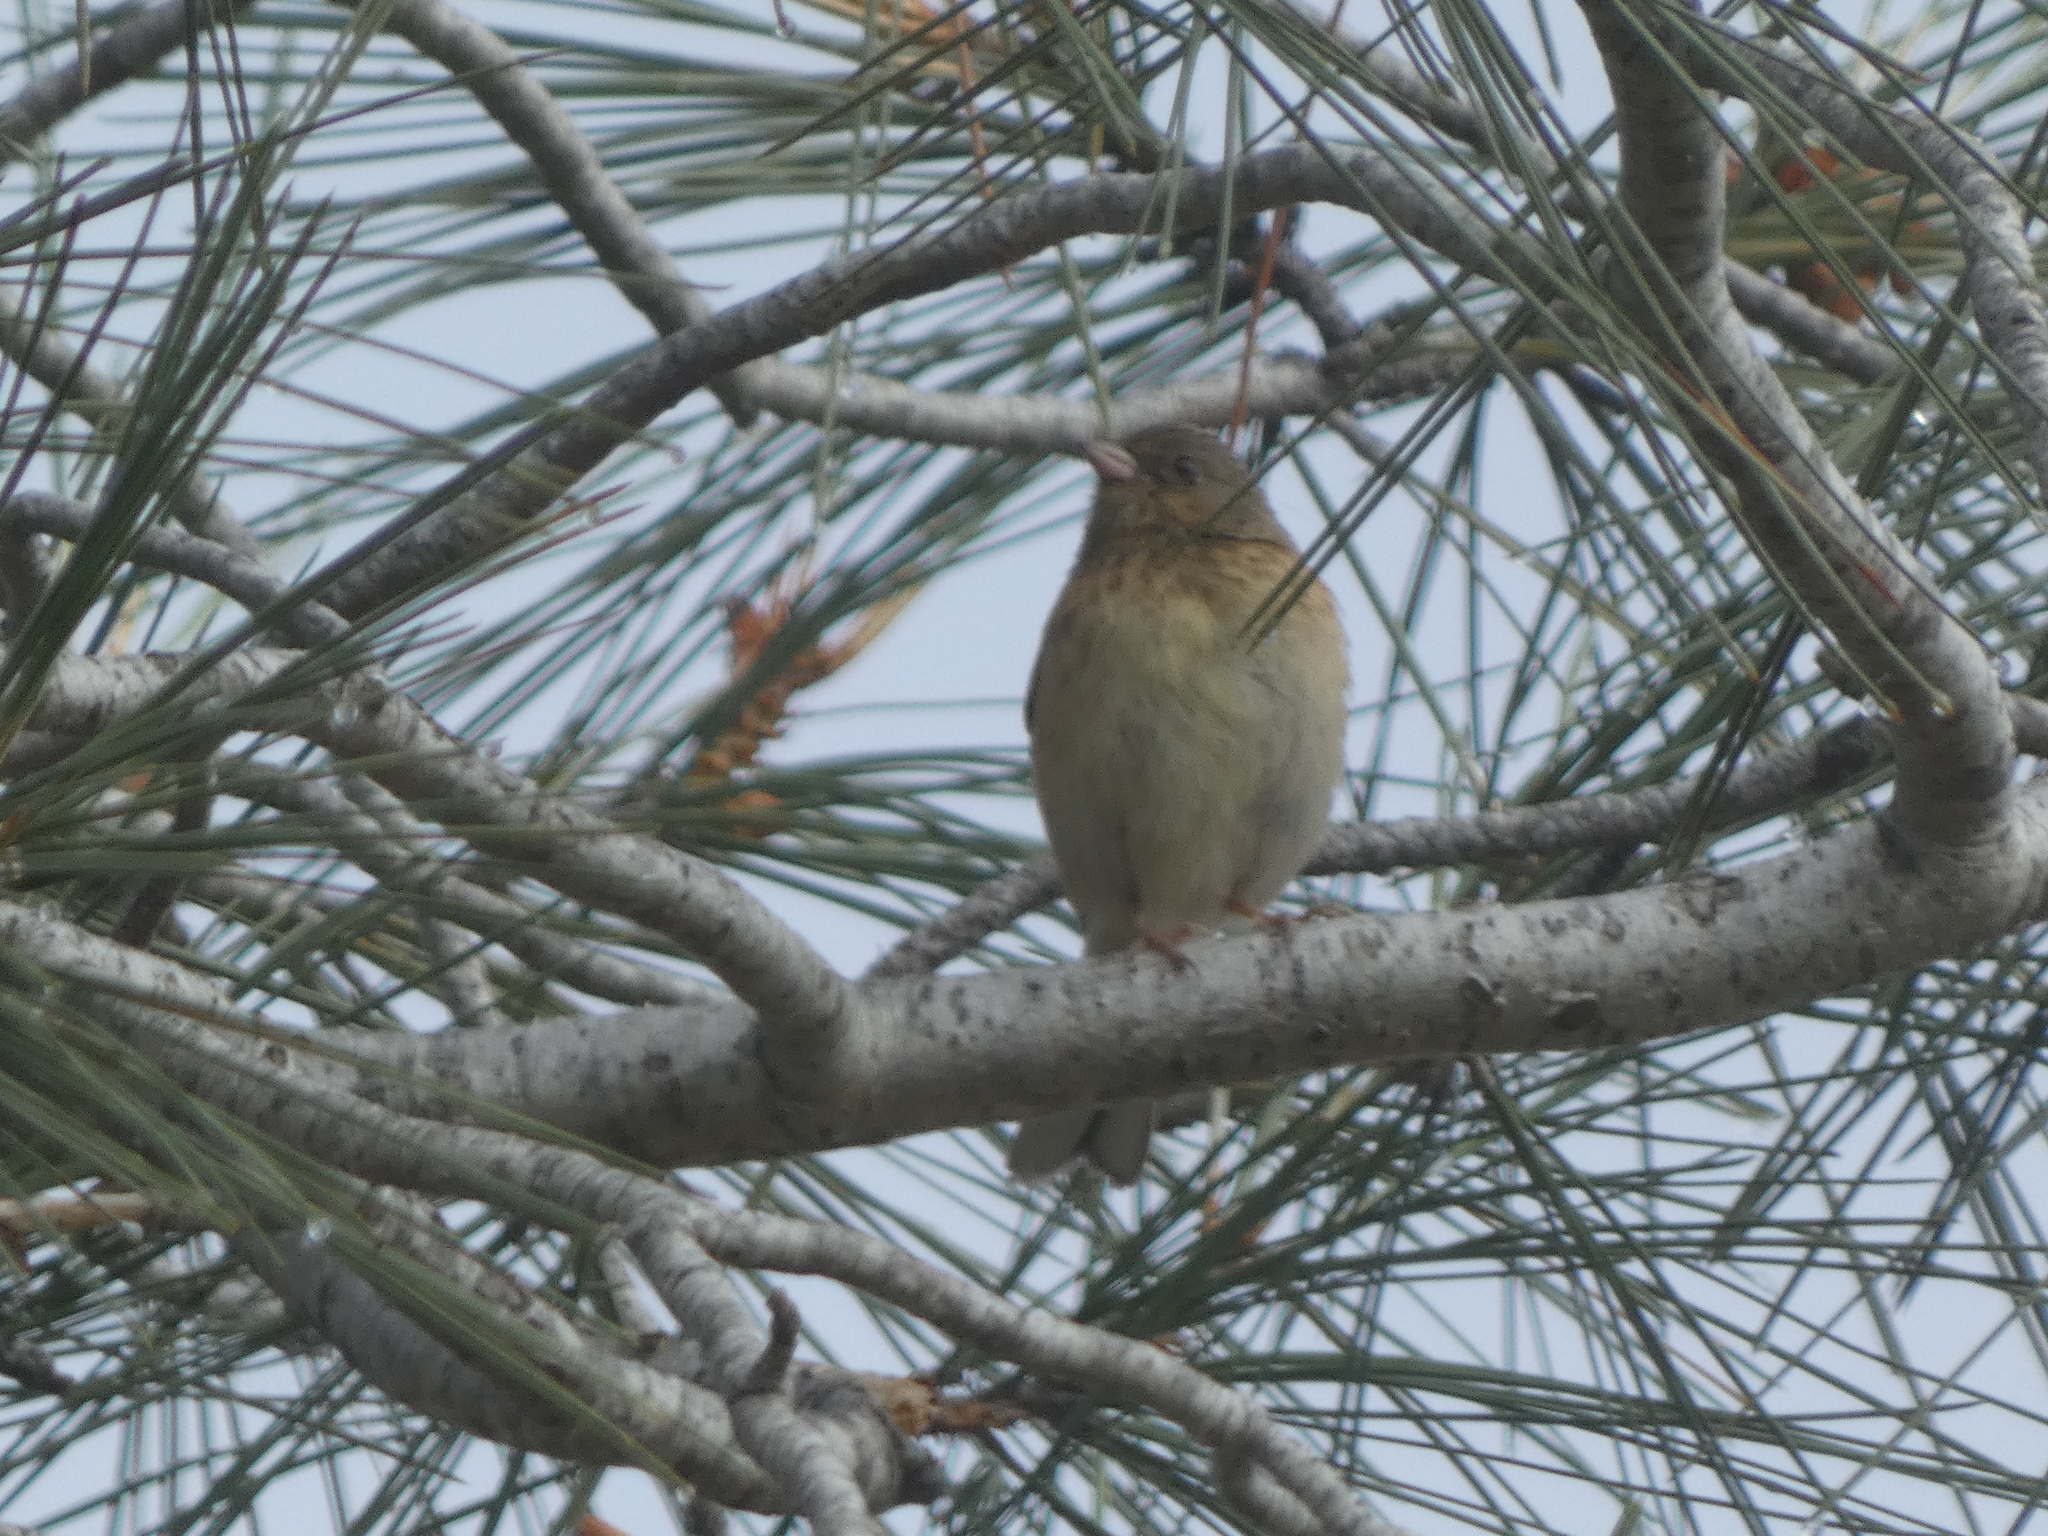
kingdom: Animalia
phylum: Chordata
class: Aves
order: Passeriformes
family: Passerellidae
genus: Junco
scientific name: Junco hyemalis
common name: Dark-eyed junco
